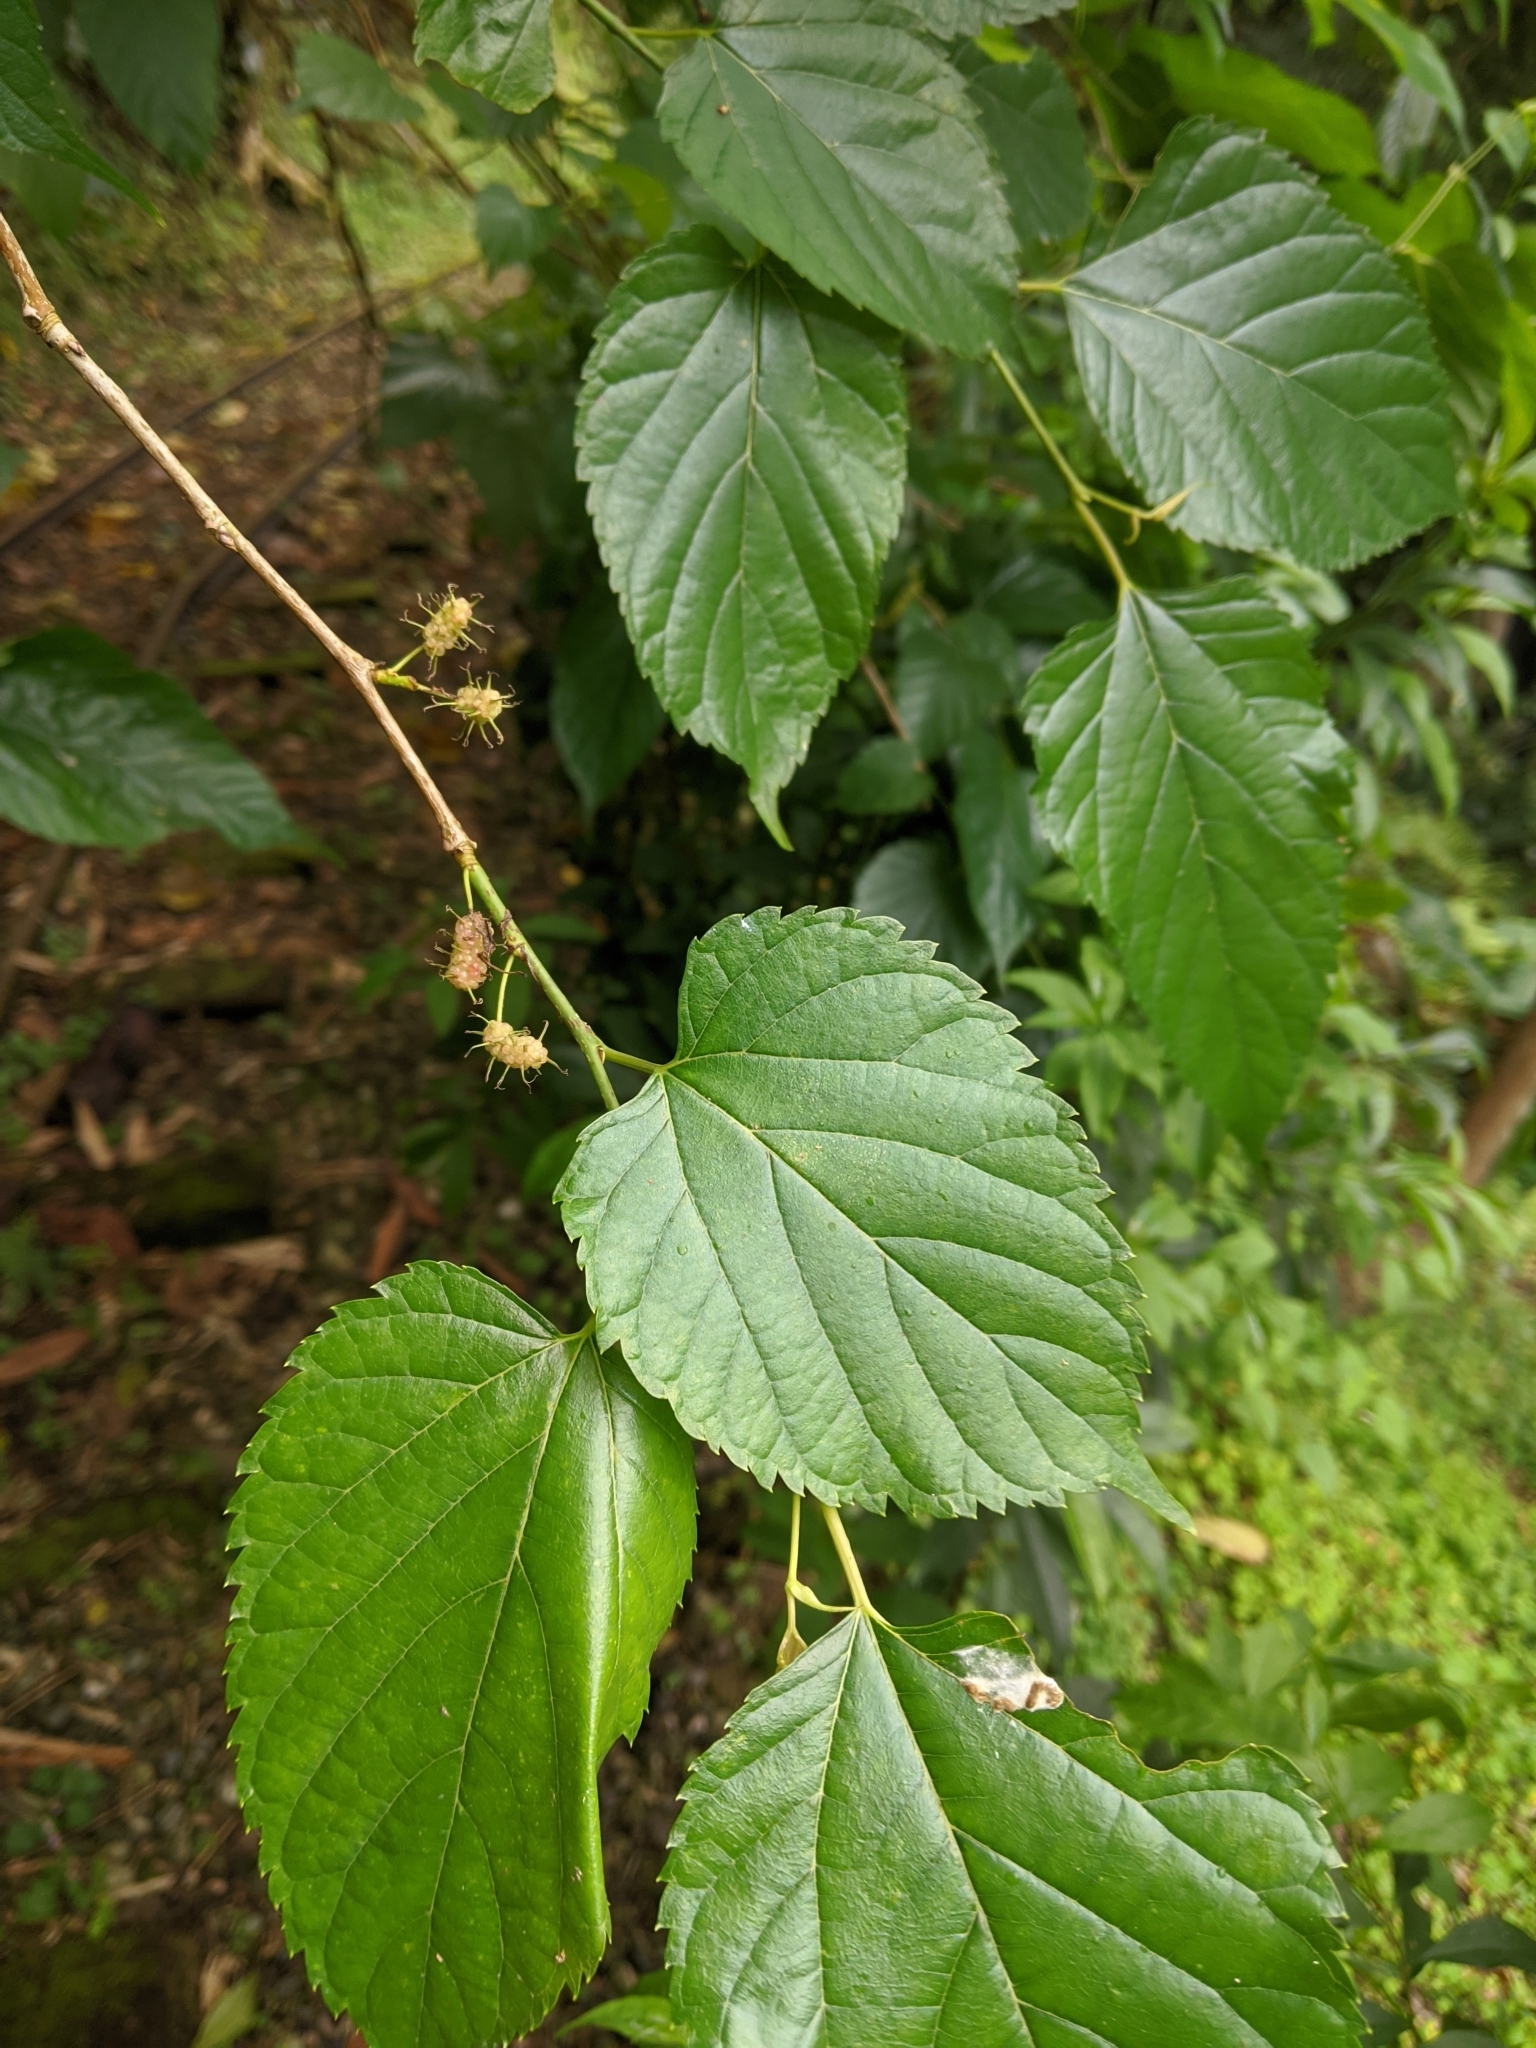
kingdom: Plantae
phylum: Tracheophyta
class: Magnoliopsida
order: Rosales
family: Moraceae
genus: Morus
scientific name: Morus indica
